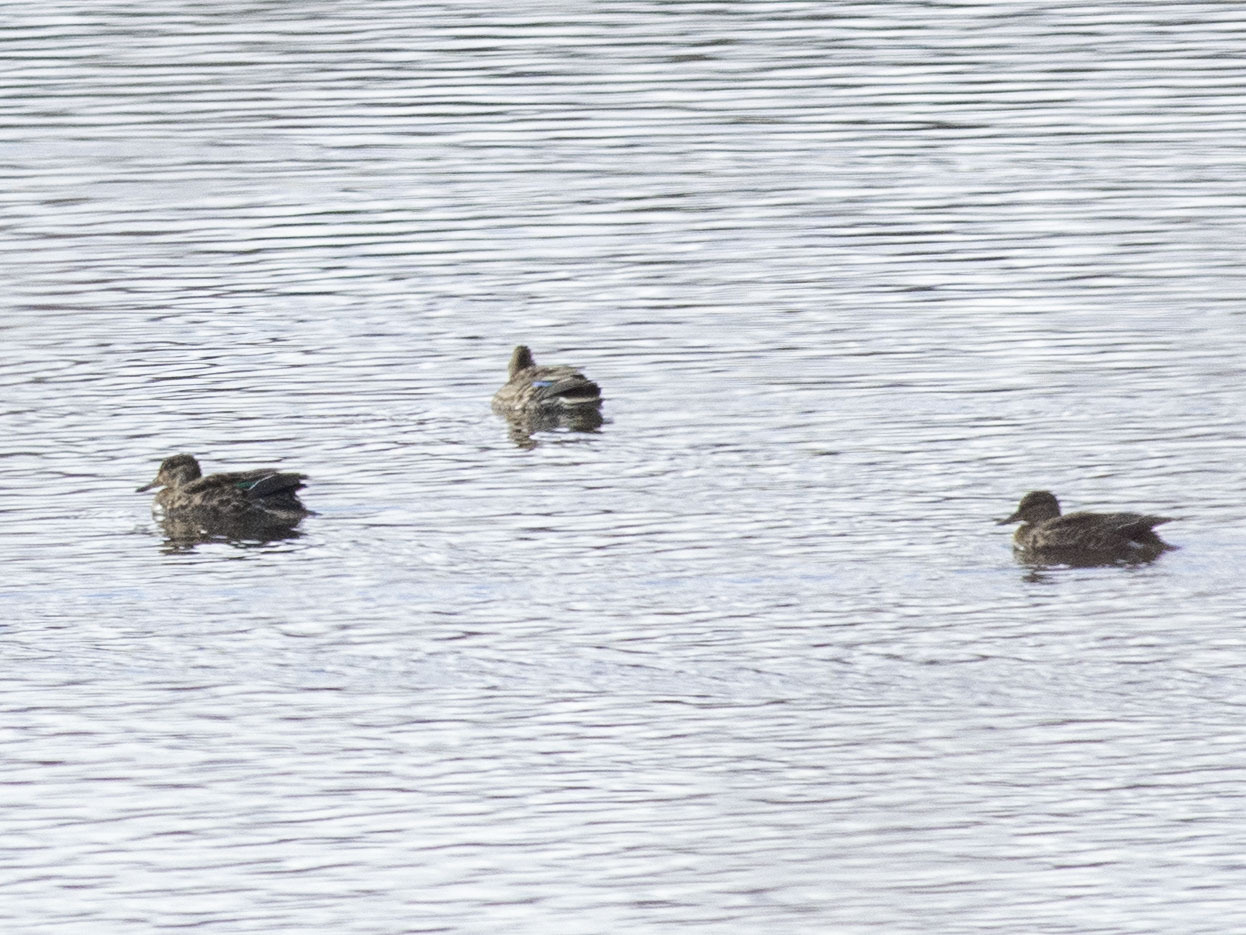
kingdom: Animalia
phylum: Chordata
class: Aves
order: Anseriformes
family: Anatidae
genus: Anas
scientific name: Anas crecca
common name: Eurasian teal
